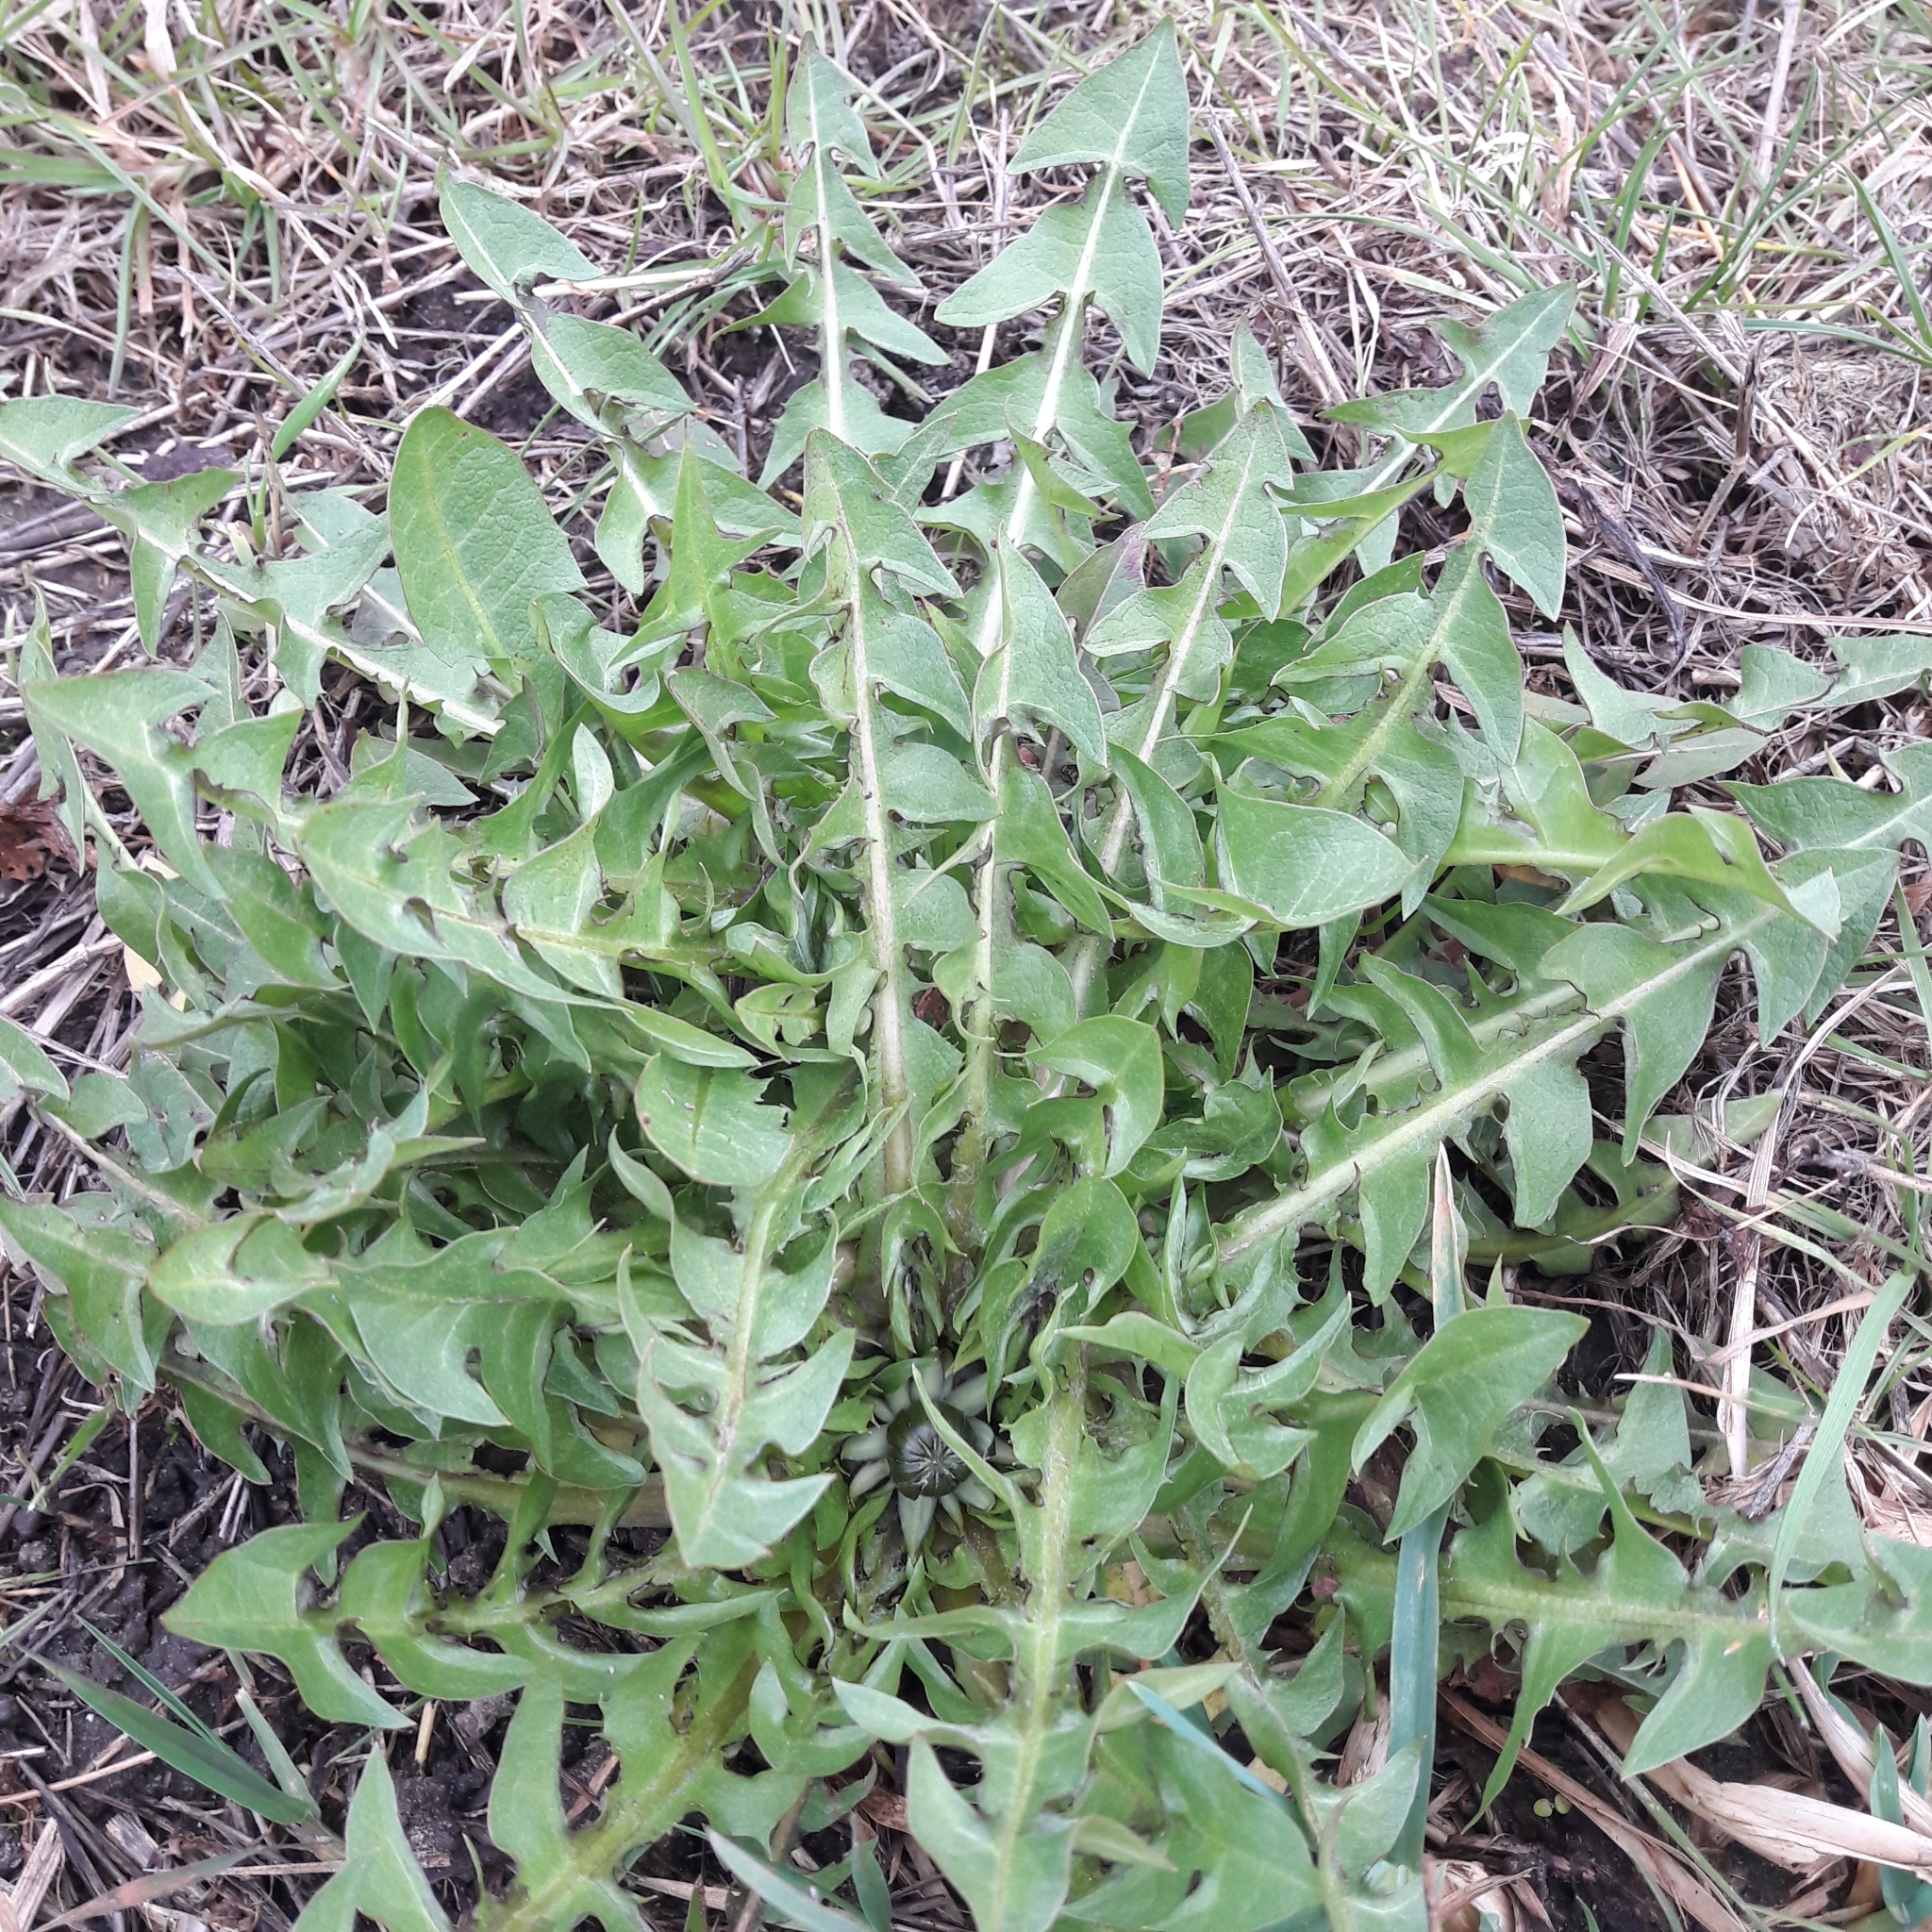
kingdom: Plantae
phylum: Tracheophyta
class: Magnoliopsida
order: Asterales
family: Asteraceae
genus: Taraxacum
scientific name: Taraxacum officinale
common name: Common dandelion
